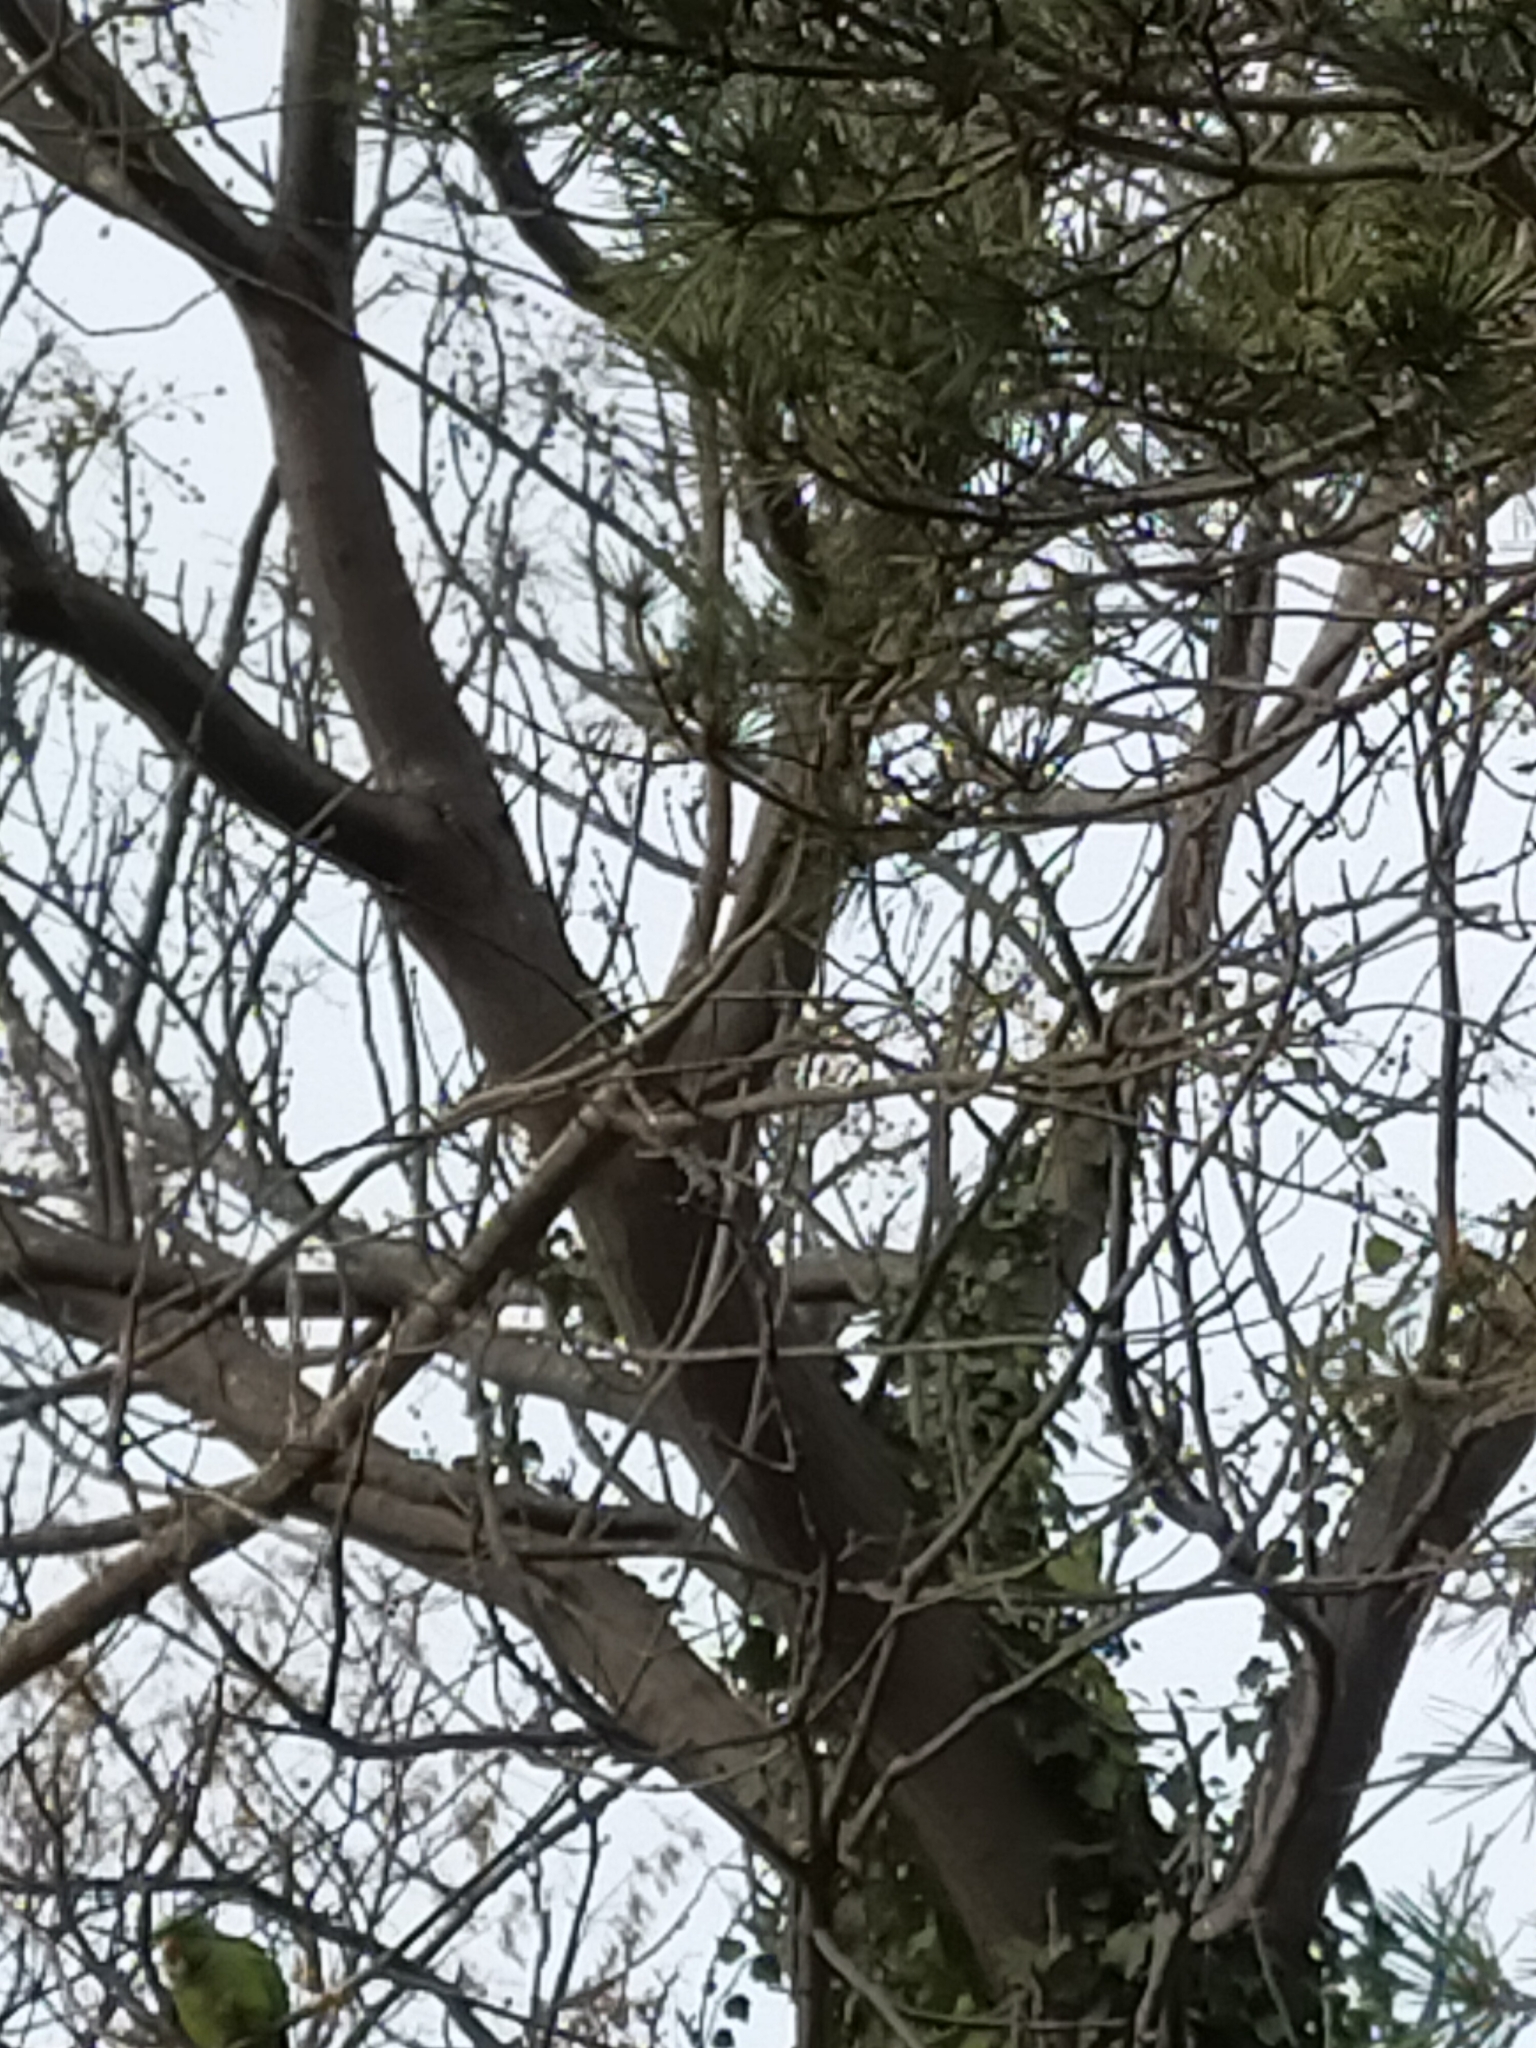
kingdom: Animalia
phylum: Chordata
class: Aves
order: Psittaciformes
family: Psittacidae
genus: Psittacula
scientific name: Psittacula krameri
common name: Rose-ringed parakeet
